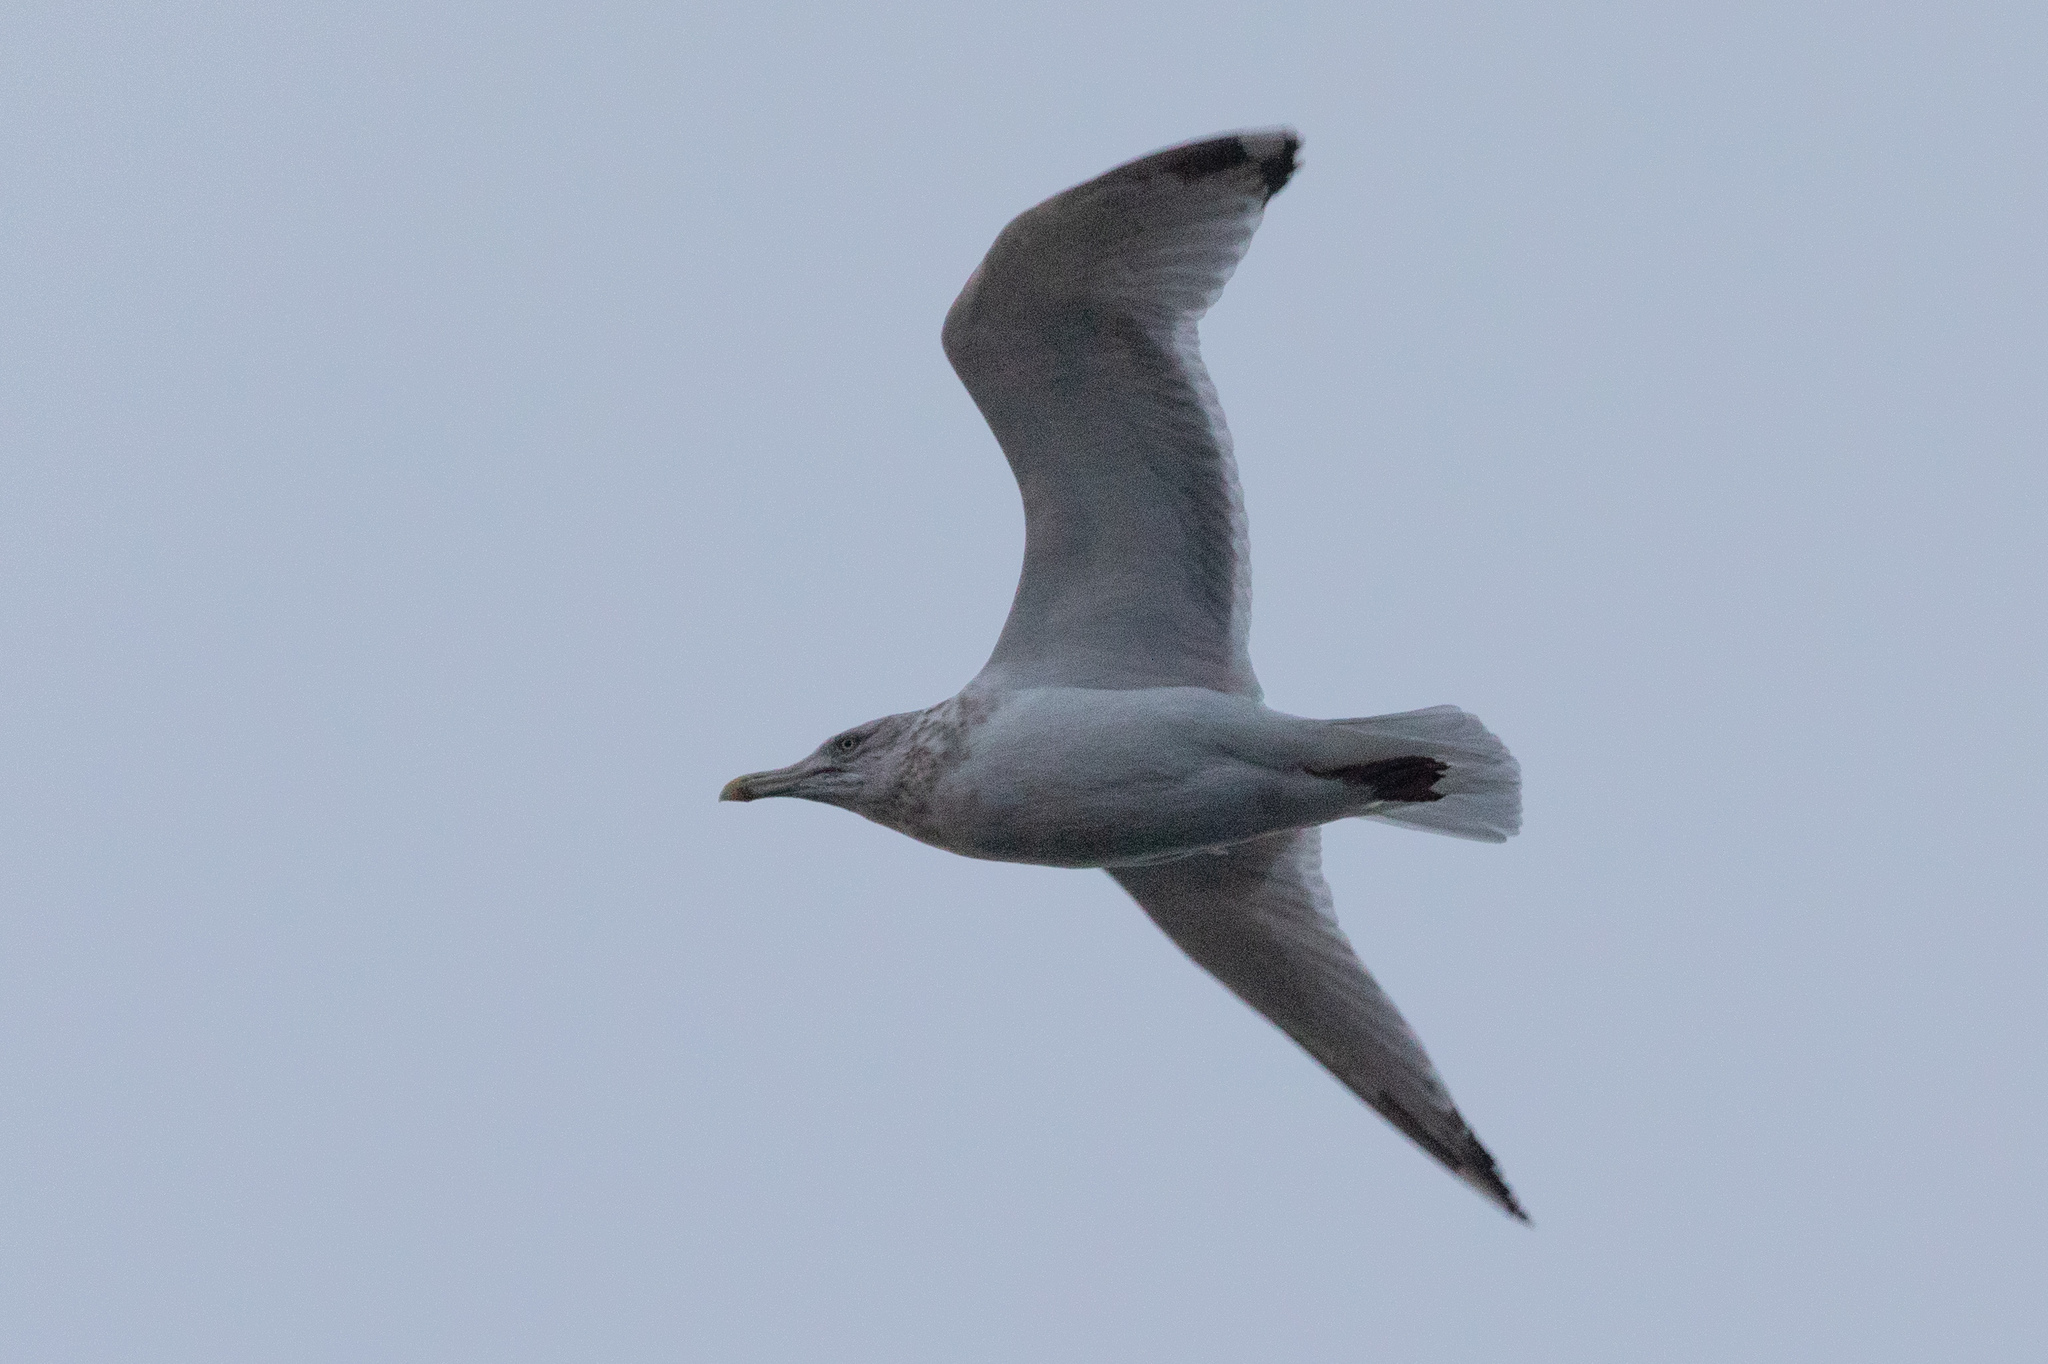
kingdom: Animalia
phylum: Chordata
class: Aves
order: Charadriiformes
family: Laridae
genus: Larus
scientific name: Larus argentatus
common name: Herring gull
